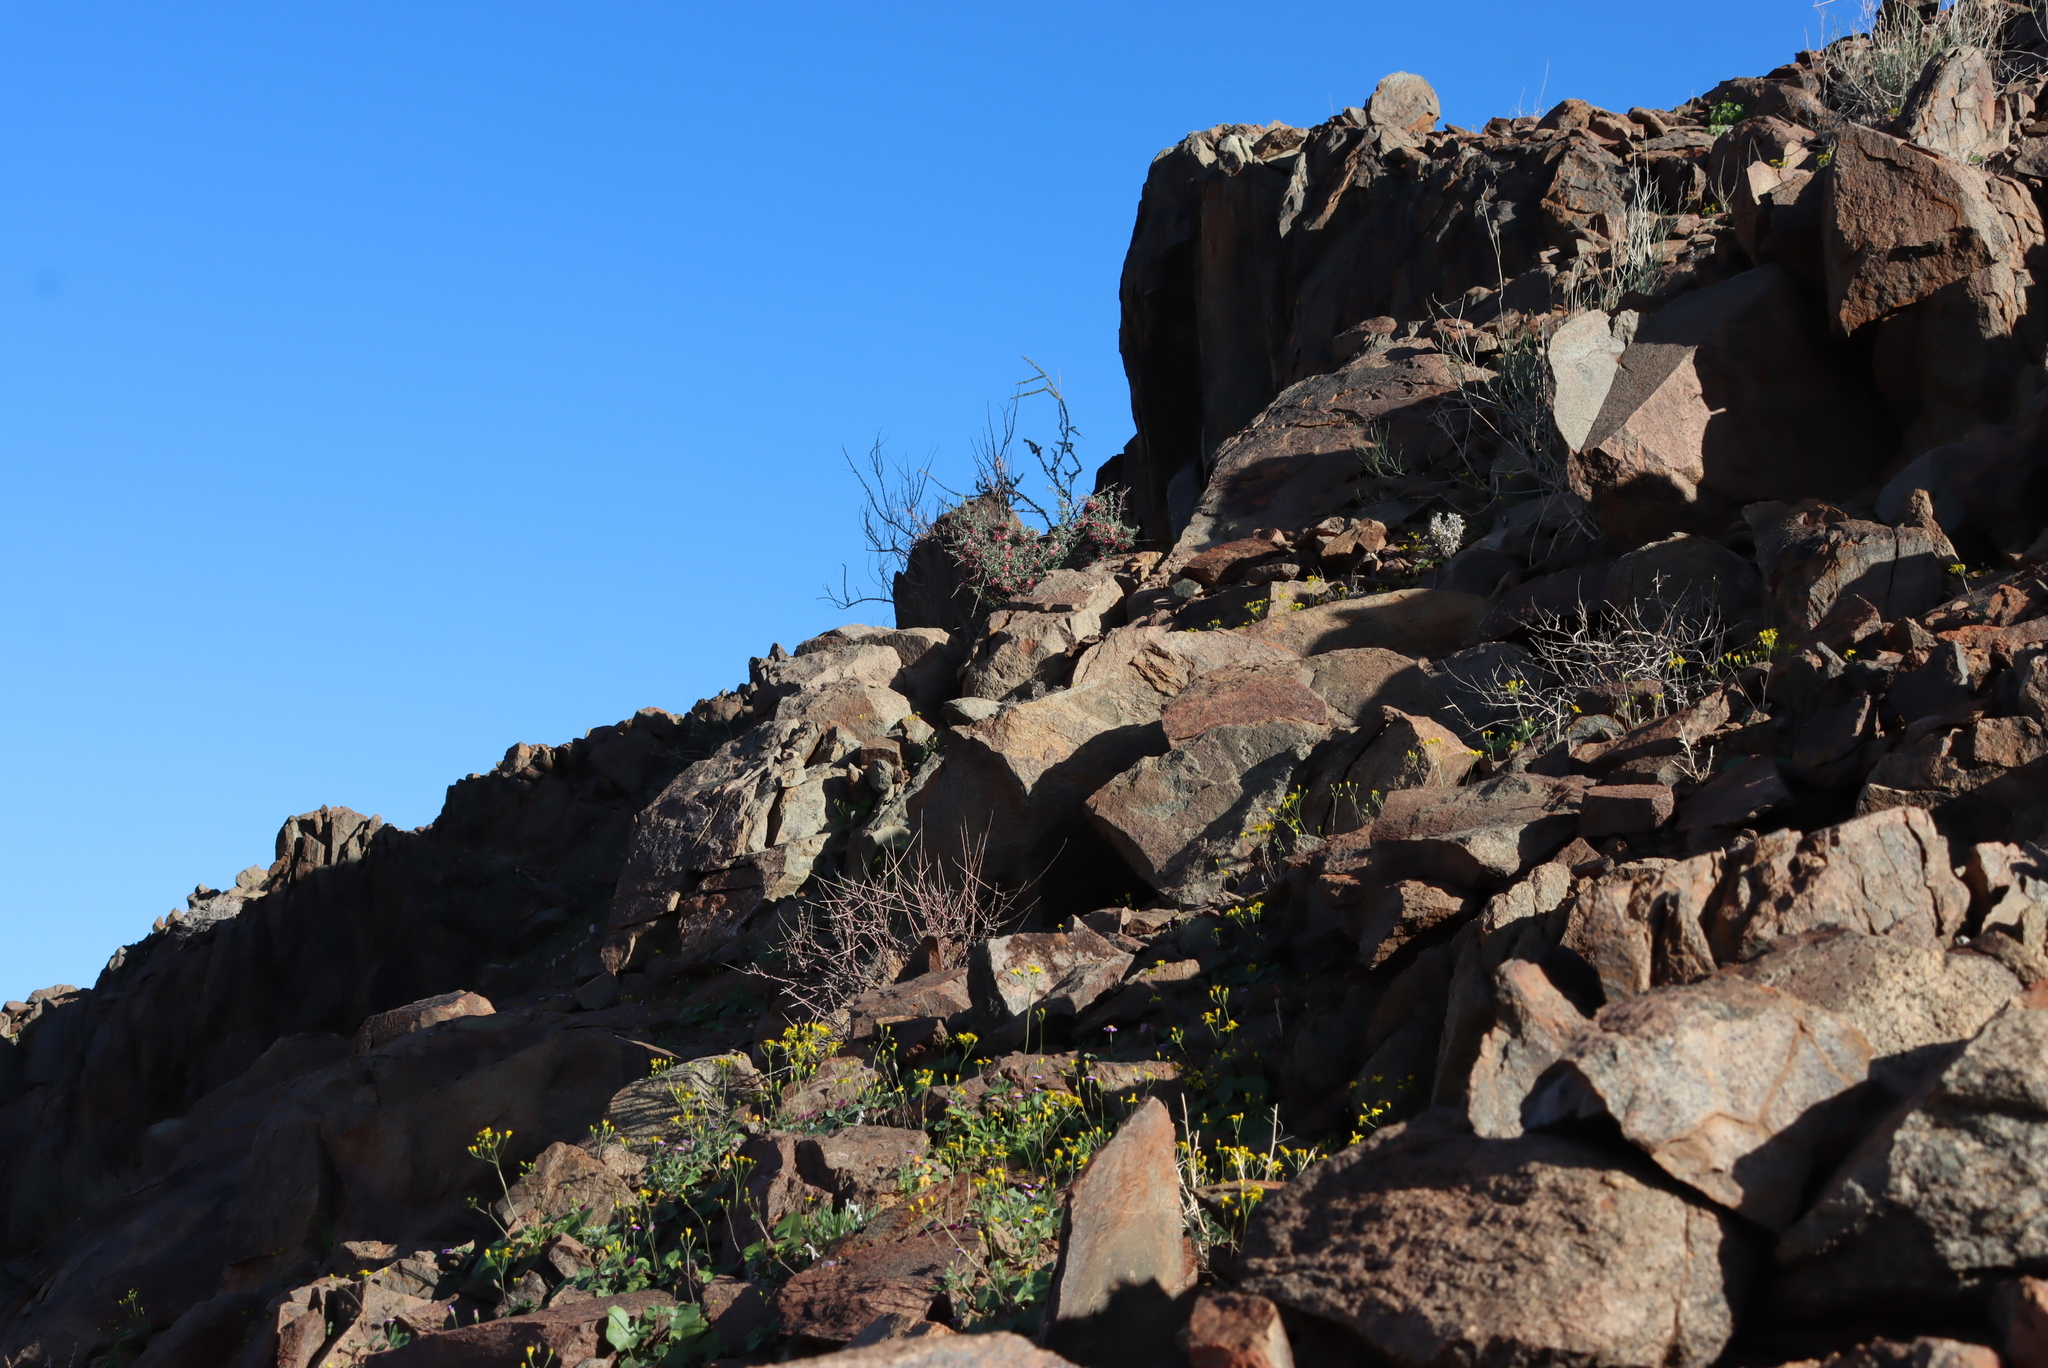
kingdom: Plantae
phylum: Tracheophyta
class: Magnoliopsida
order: Sapindales
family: Meliaceae
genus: Nymania
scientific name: Nymania capensis
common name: Chinese lantern tree
